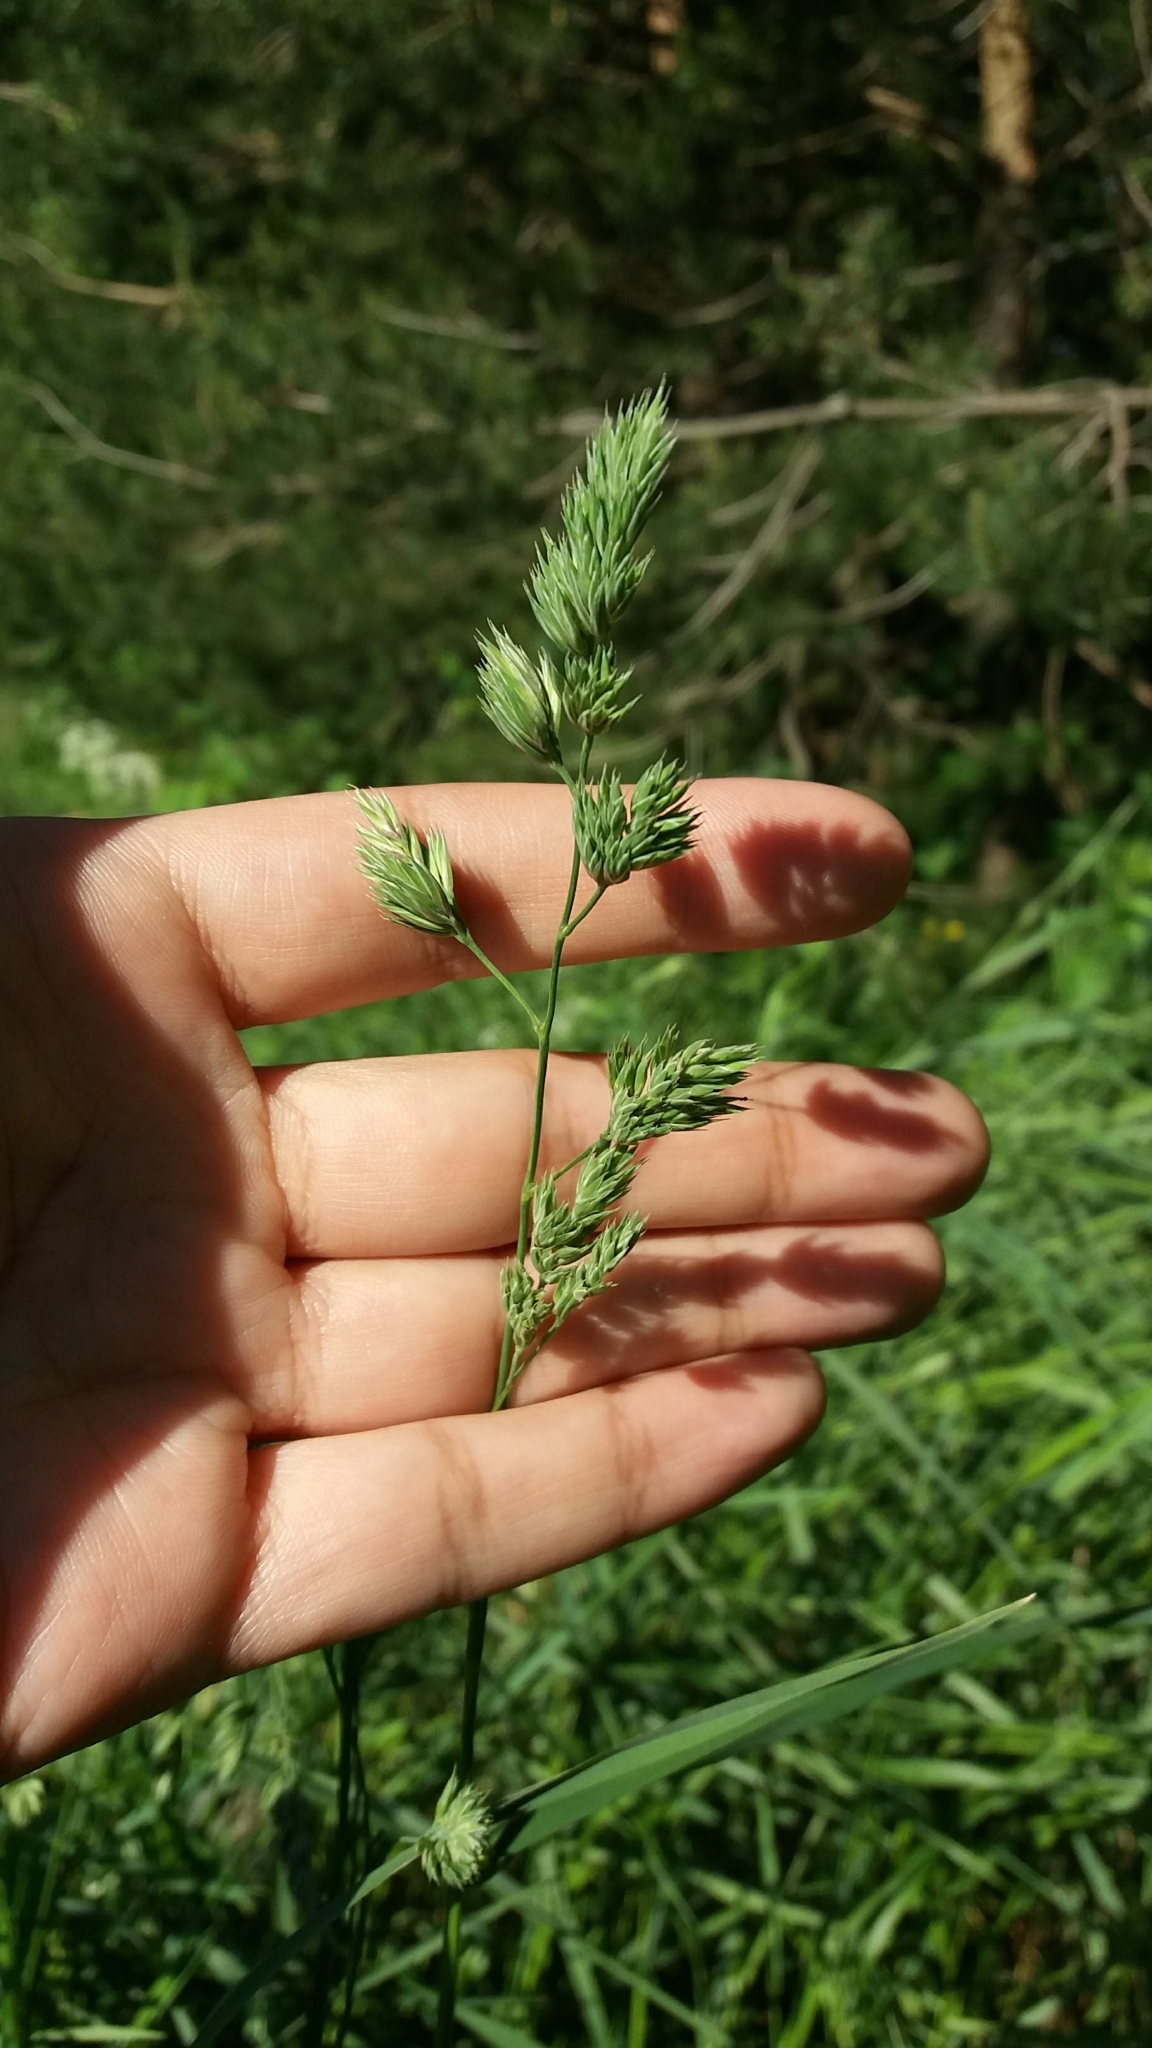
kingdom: Plantae
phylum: Tracheophyta
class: Liliopsida
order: Poales
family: Poaceae
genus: Dactylis
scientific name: Dactylis glomerata
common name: Orchardgrass
